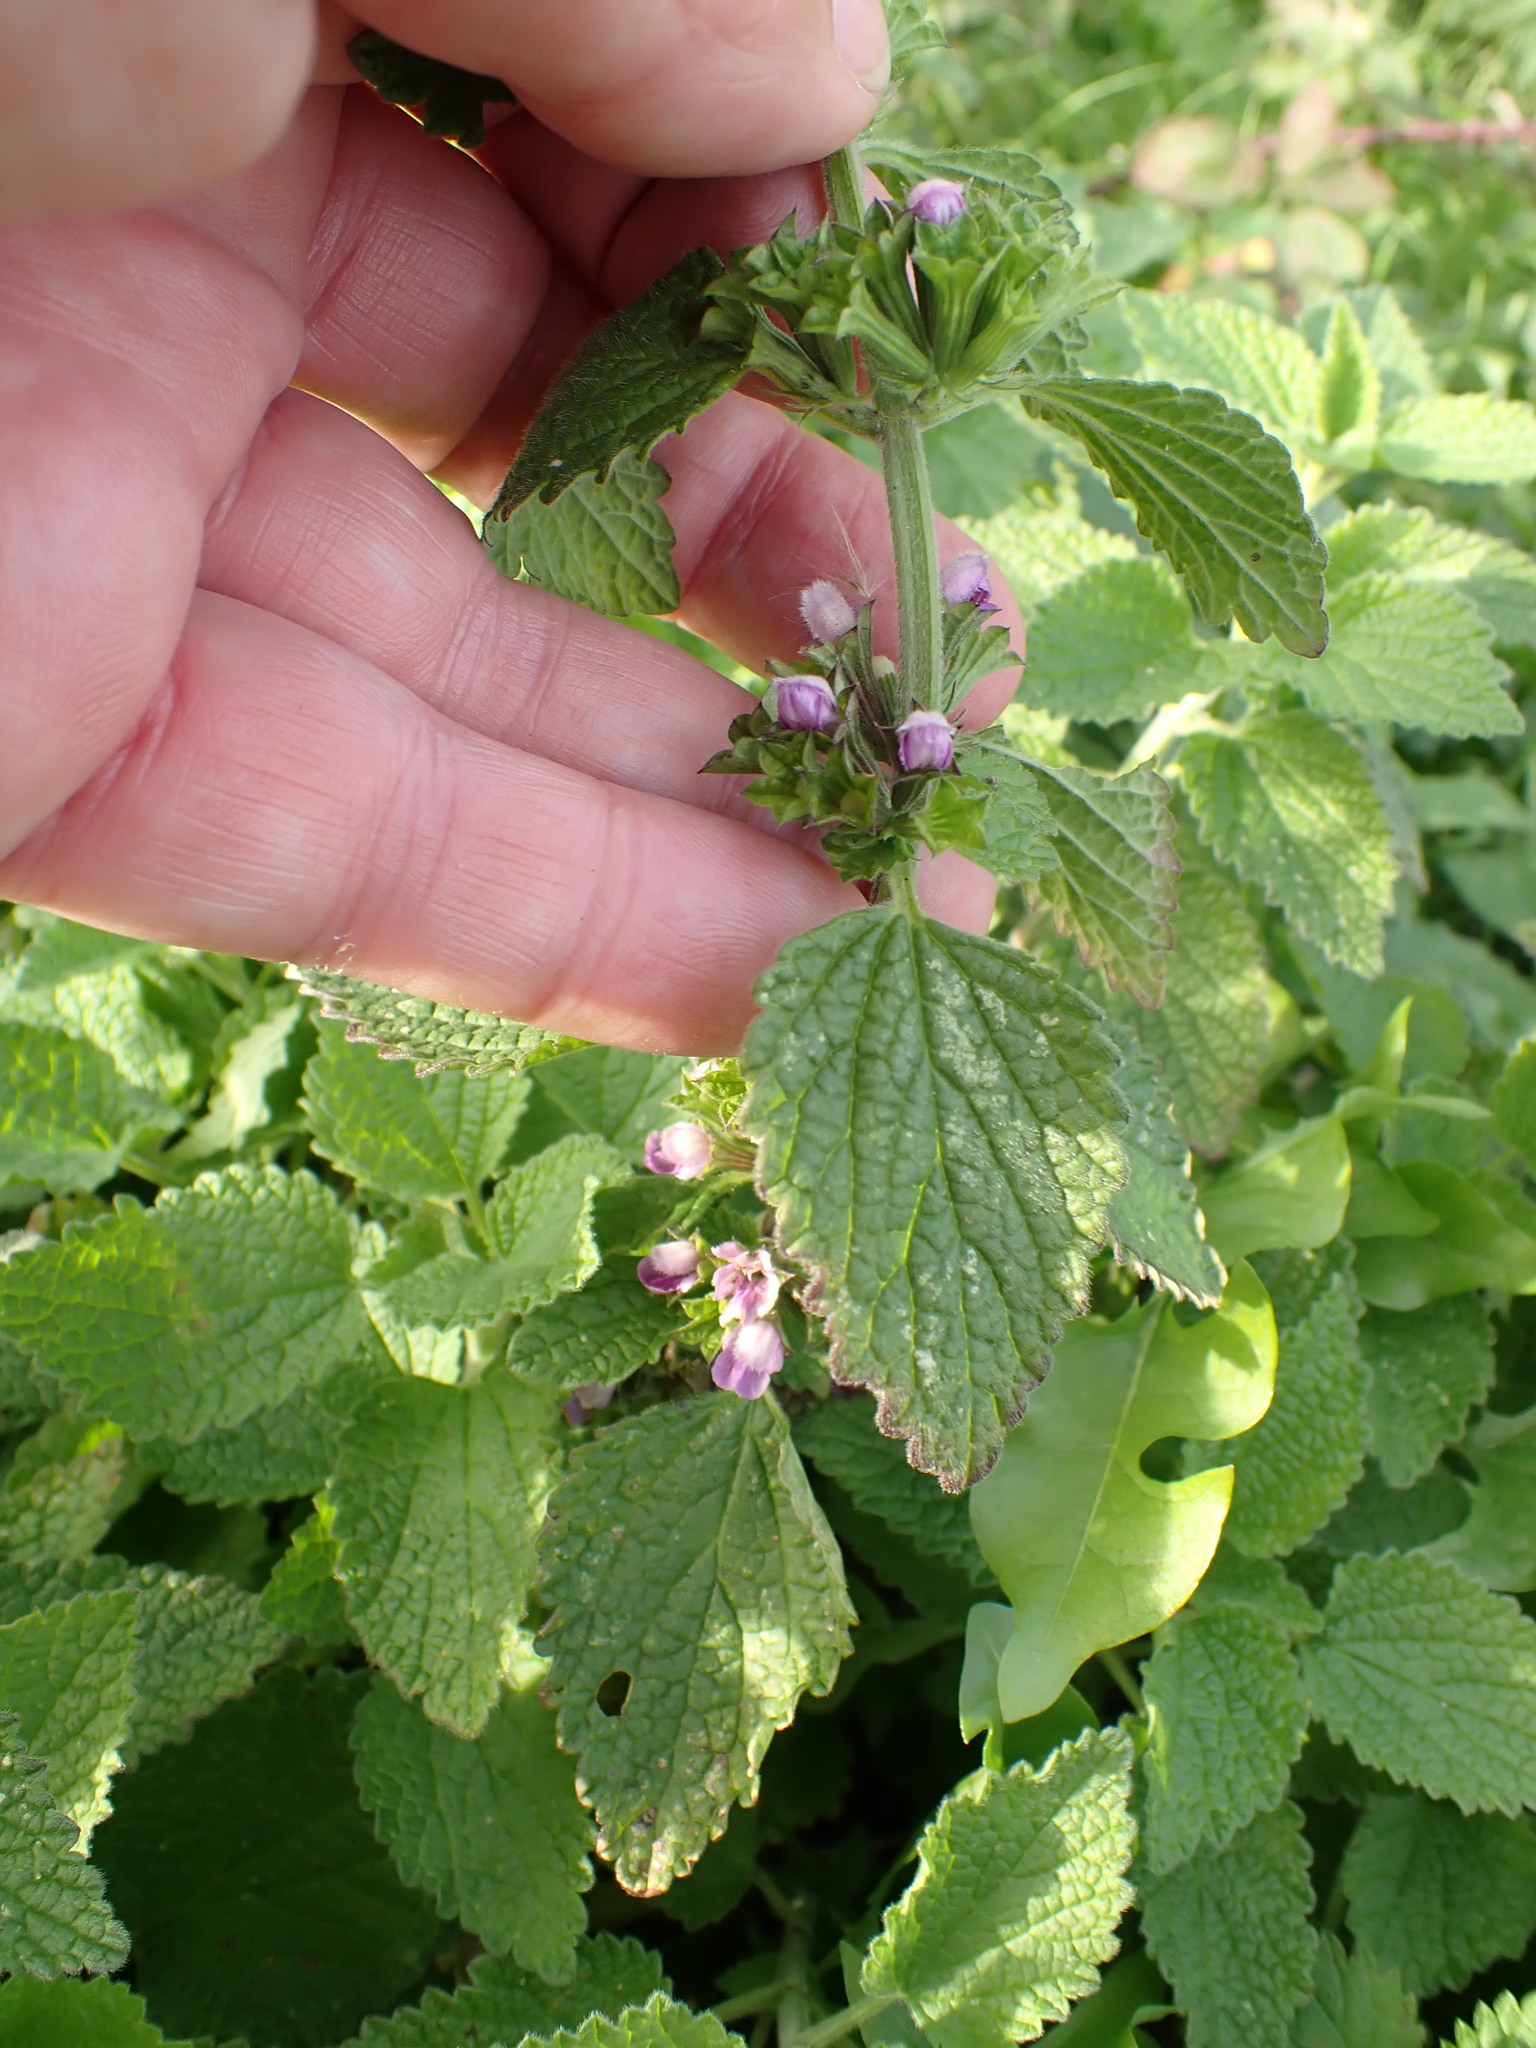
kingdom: Plantae
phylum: Tracheophyta
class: Magnoliopsida
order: Lamiales
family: Lamiaceae
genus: Ballota
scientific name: Ballota nigra
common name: Black horehound
